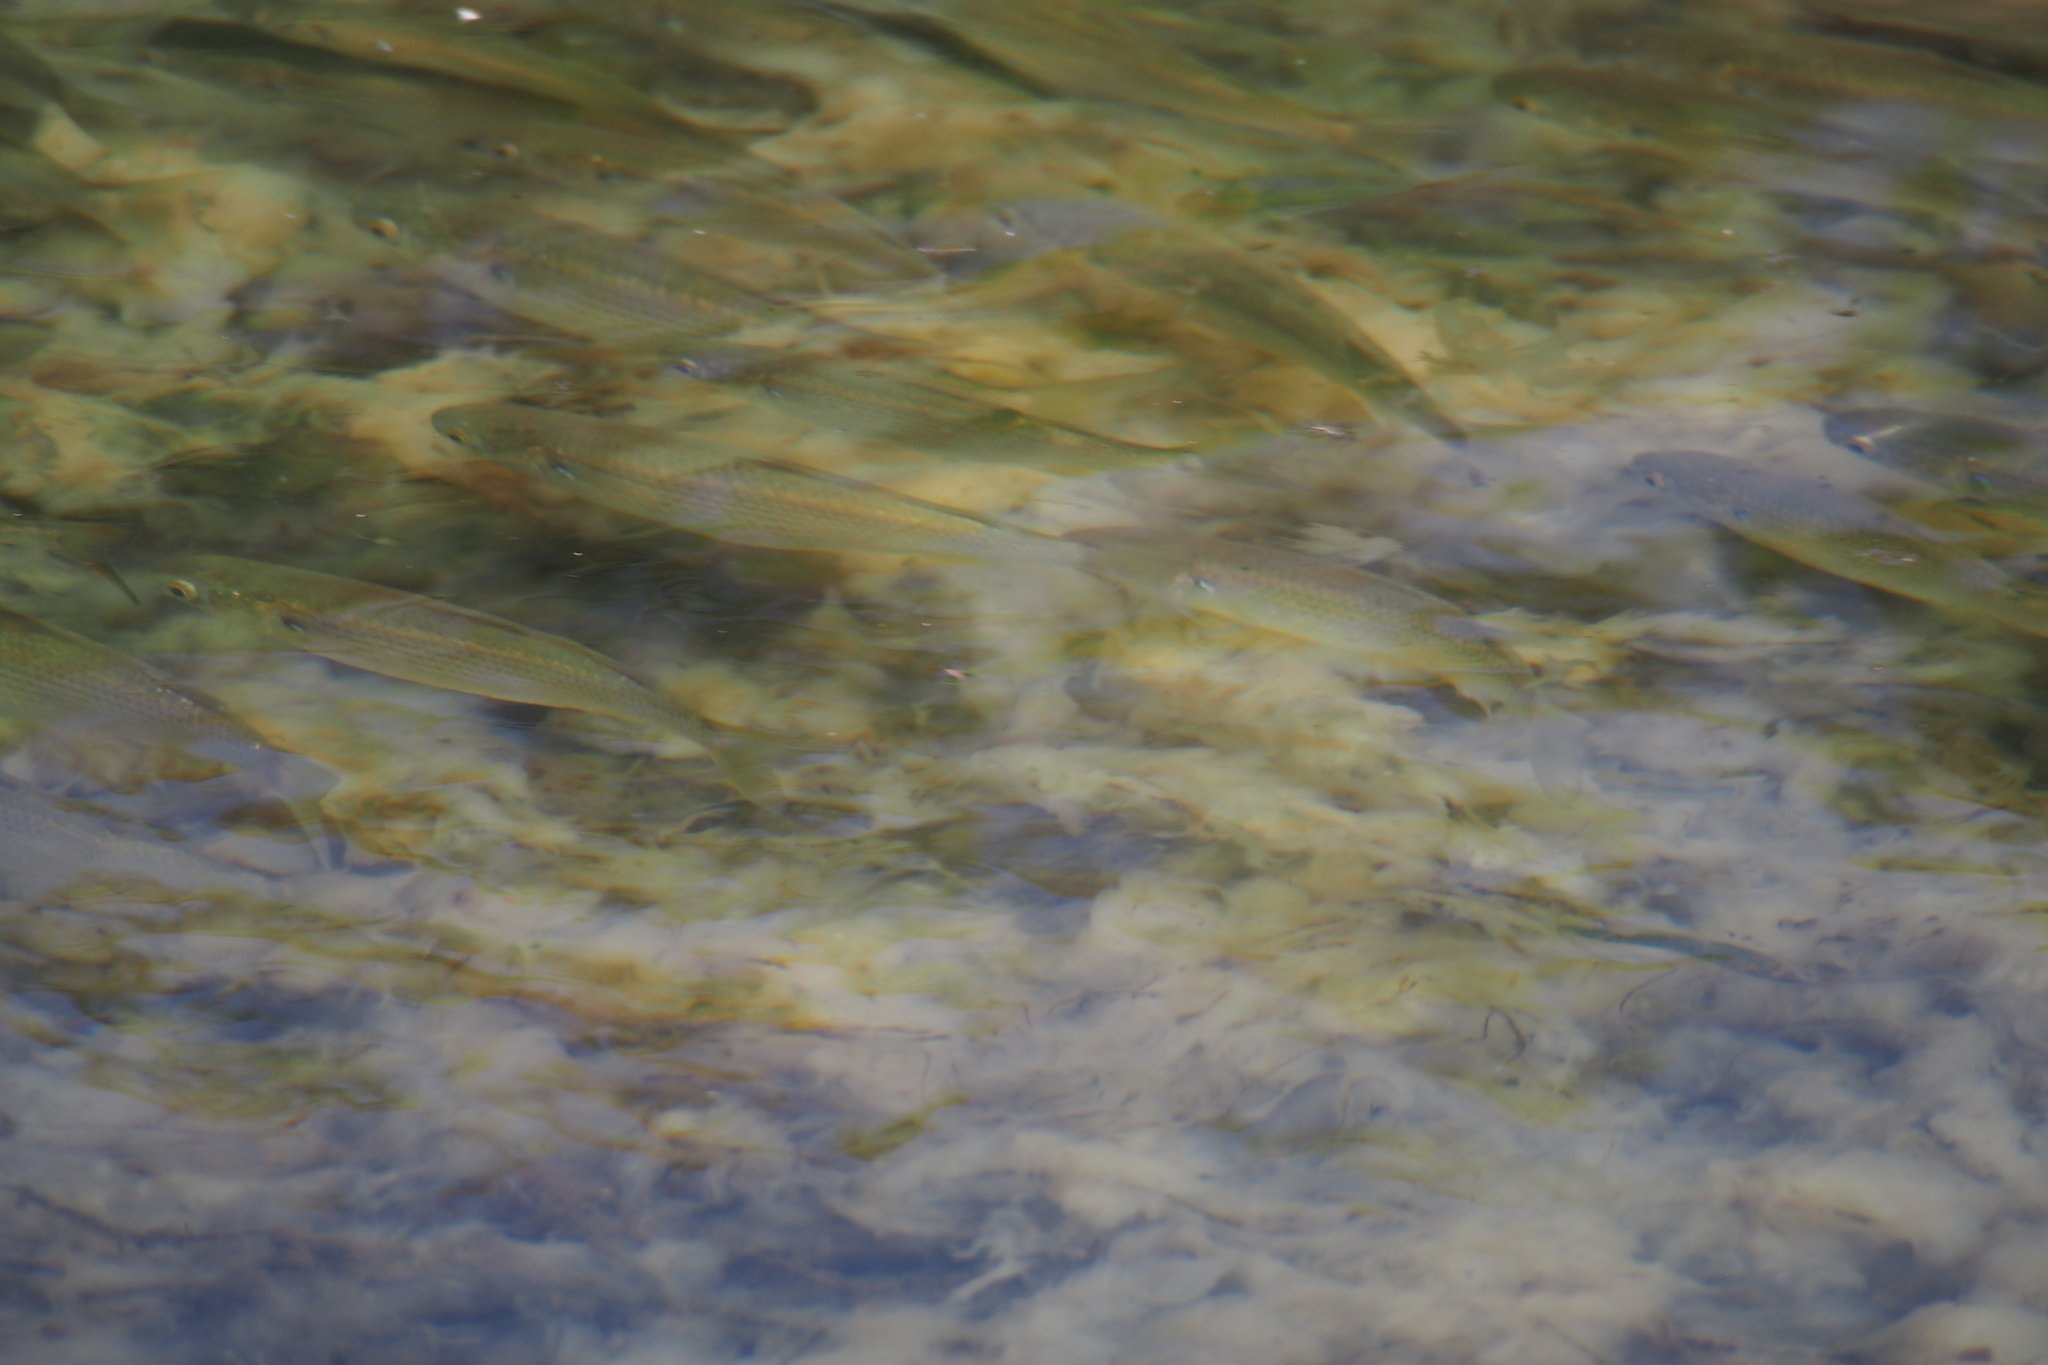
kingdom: Animalia
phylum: Chordata
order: Mugiliformes
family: Mugilidae
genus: Mugil
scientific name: Mugil cephalus
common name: Grey mullet
